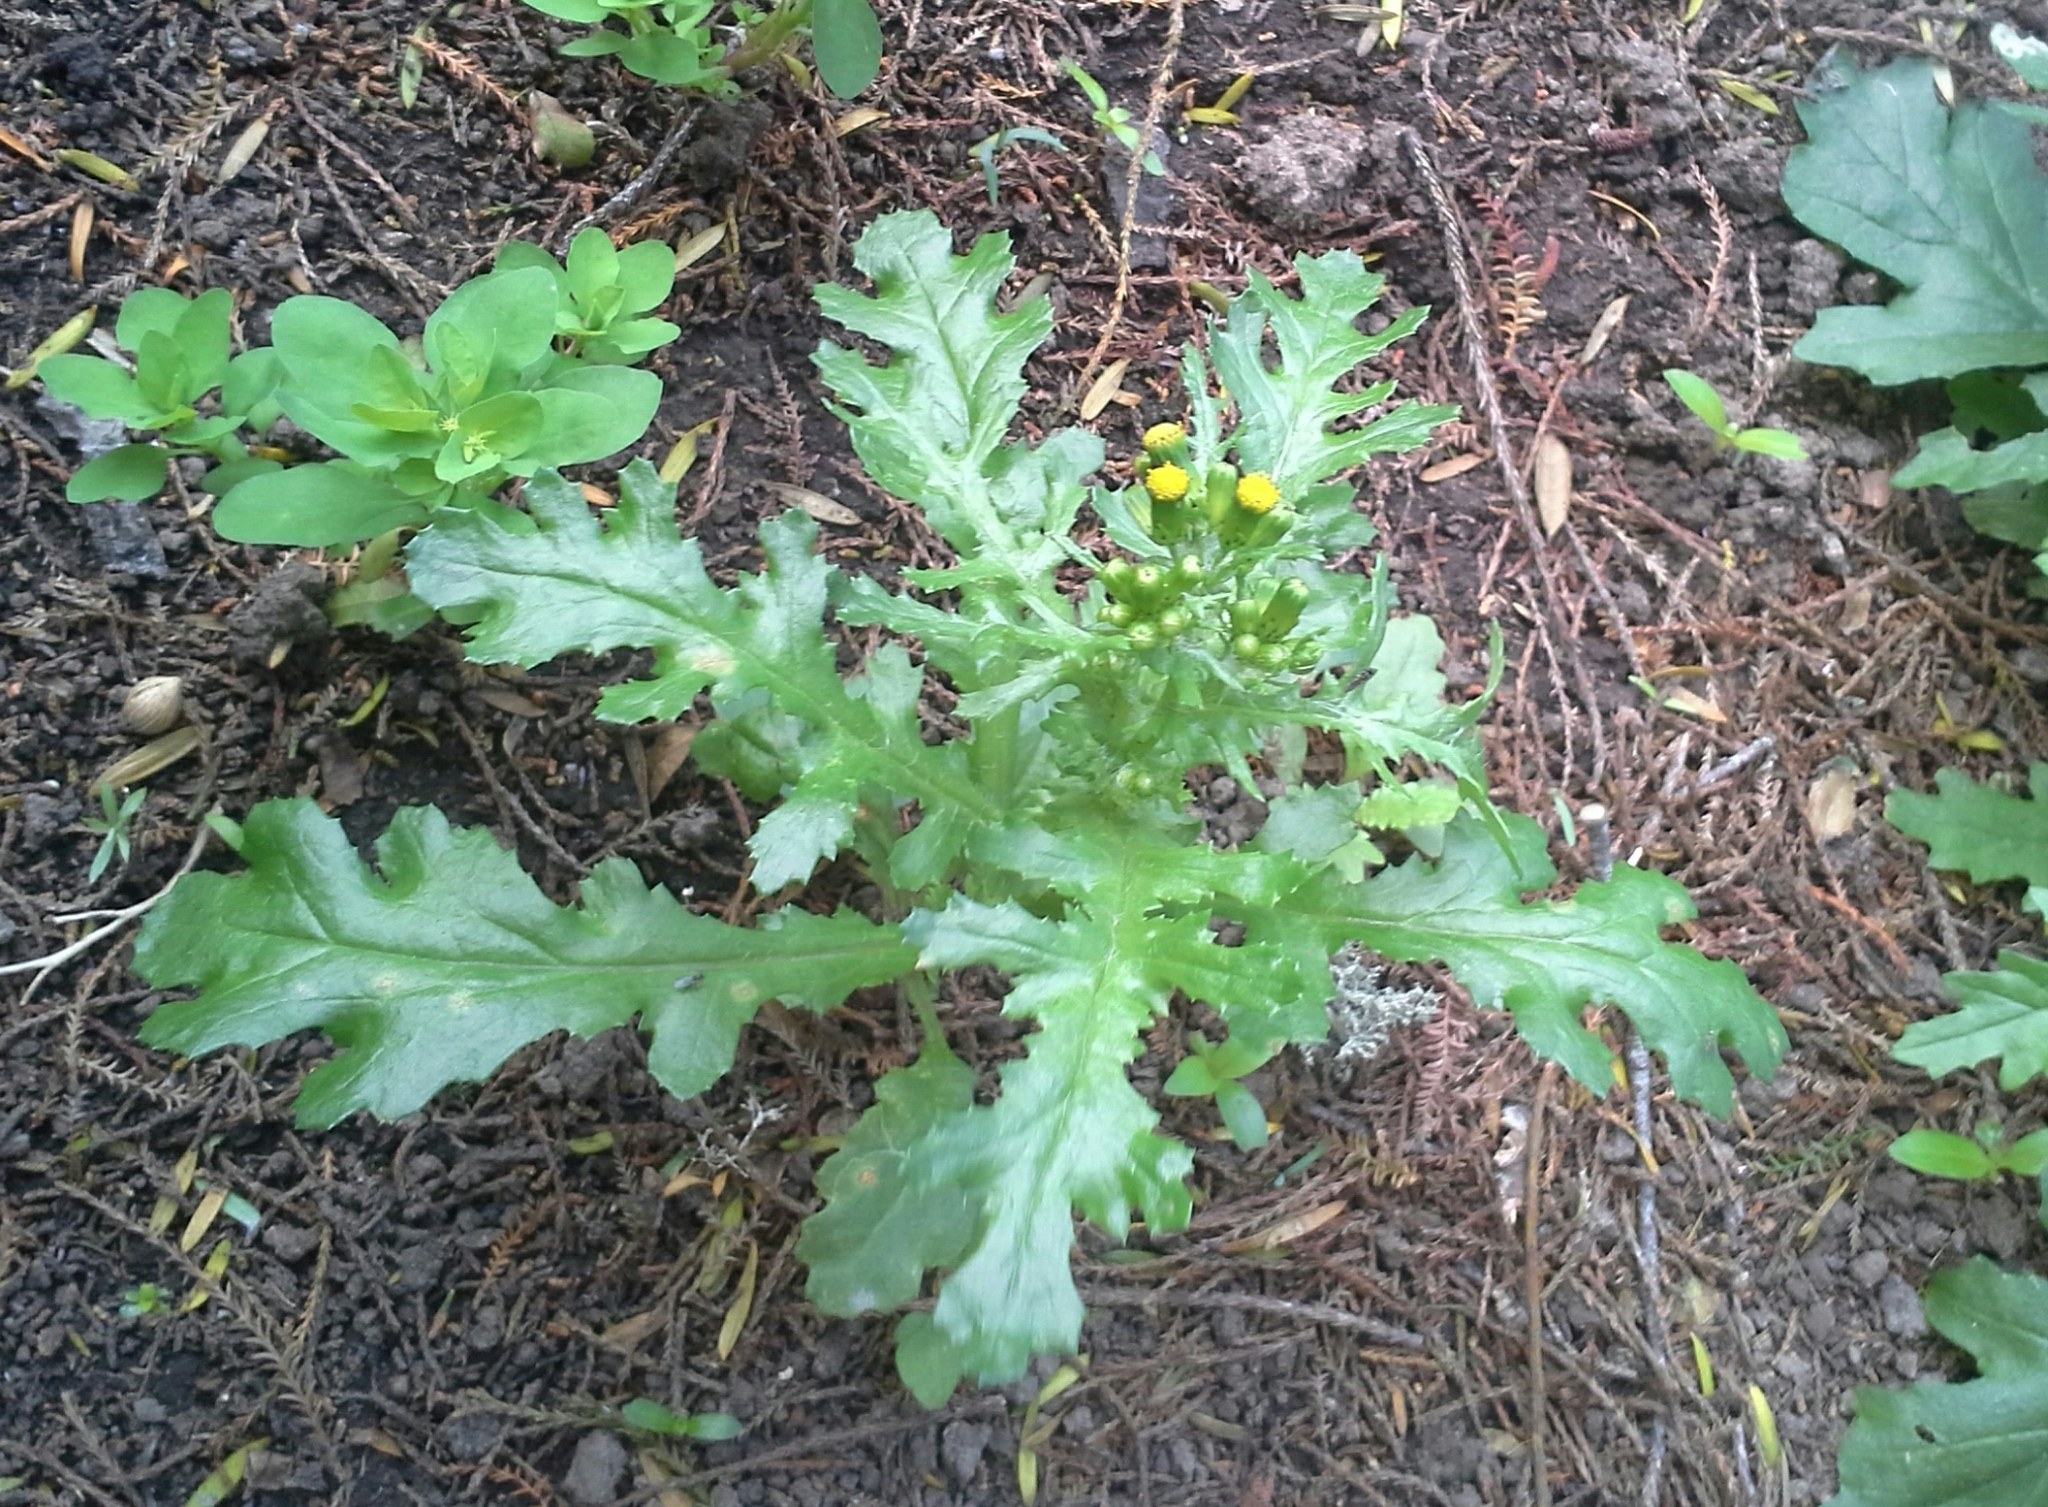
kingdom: Plantae
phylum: Tracheophyta
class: Magnoliopsida
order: Asterales
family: Asteraceae
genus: Senecio
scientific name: Senecio vulgaris
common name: Old-man-in-the-spring
